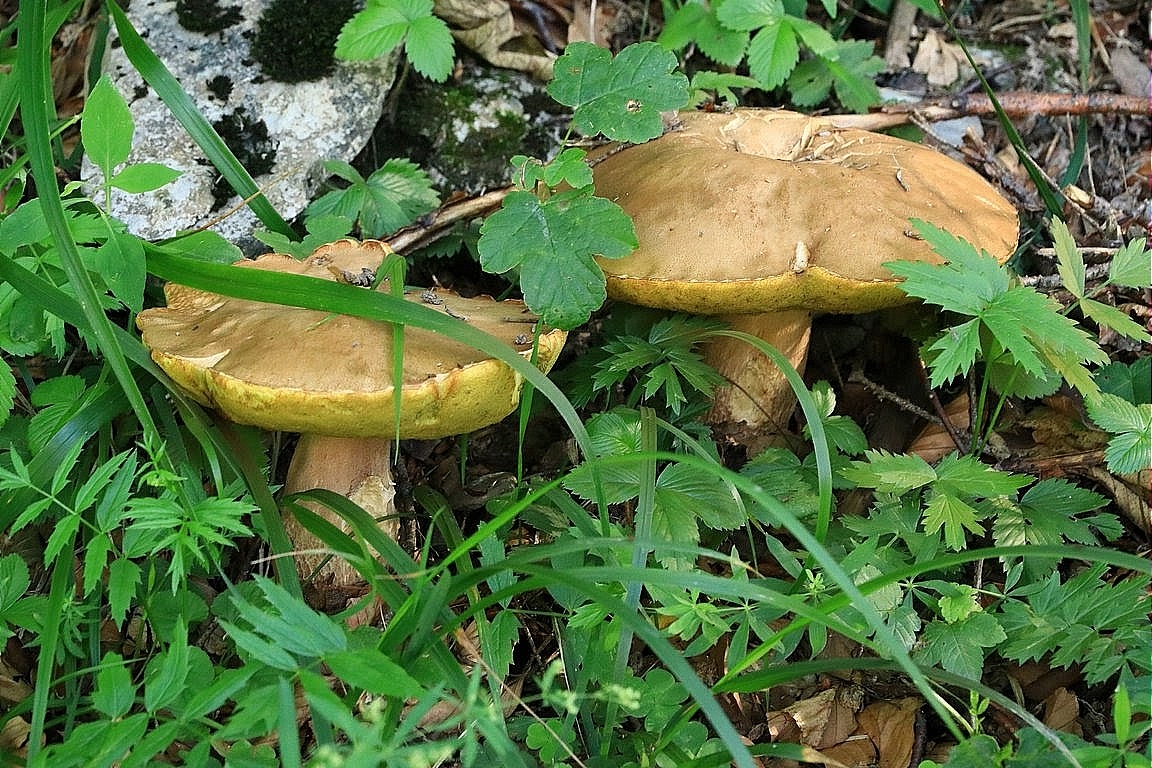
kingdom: Fungi
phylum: Basidiomycota
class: Agaricomycetes
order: Boletales
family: Boletaceae
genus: Boletus
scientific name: Boletus reticulatus
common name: Summer bolete
